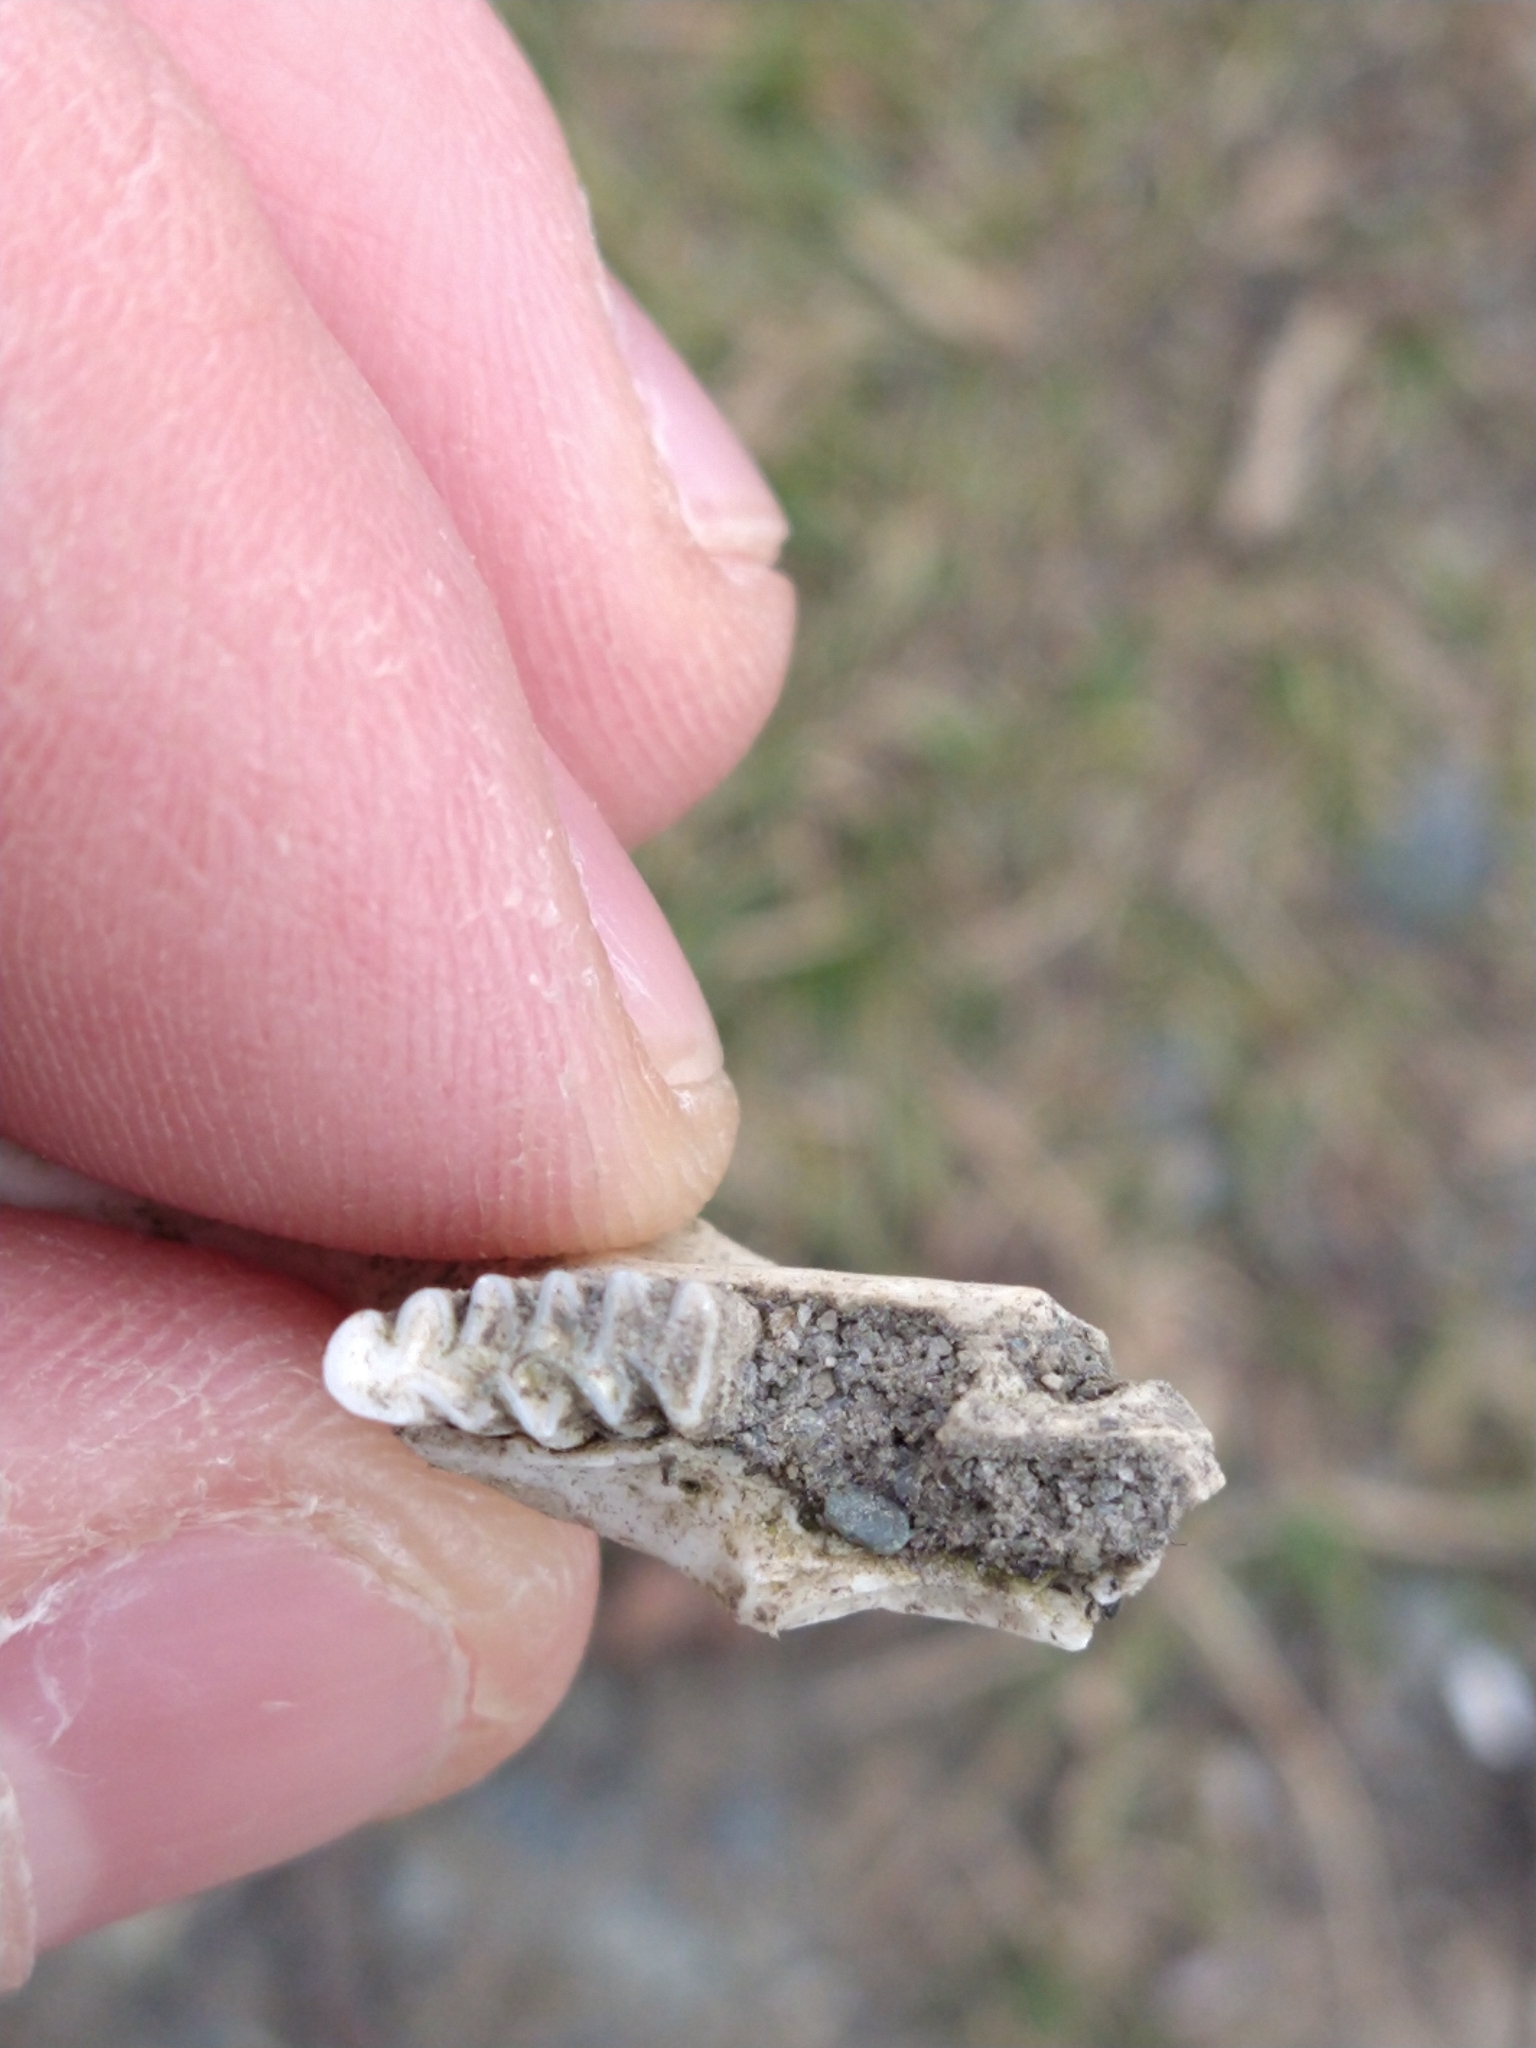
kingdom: Animalia
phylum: Chordata
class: Mammalia
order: Rodentia
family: Cricetidae
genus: Ondatra
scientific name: Ondatra zibethicus
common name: Muskrat
